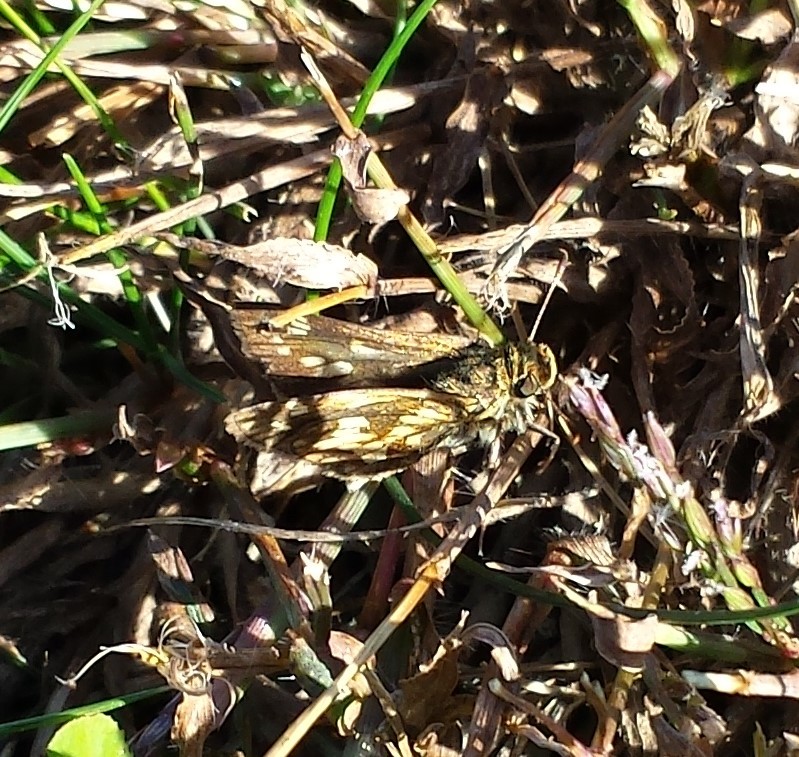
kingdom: Animalia
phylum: Arthropoda
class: Insecta
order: Lepidoptera
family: Hesperiidae
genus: Polites
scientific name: Polites coras
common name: Peck's skipper
